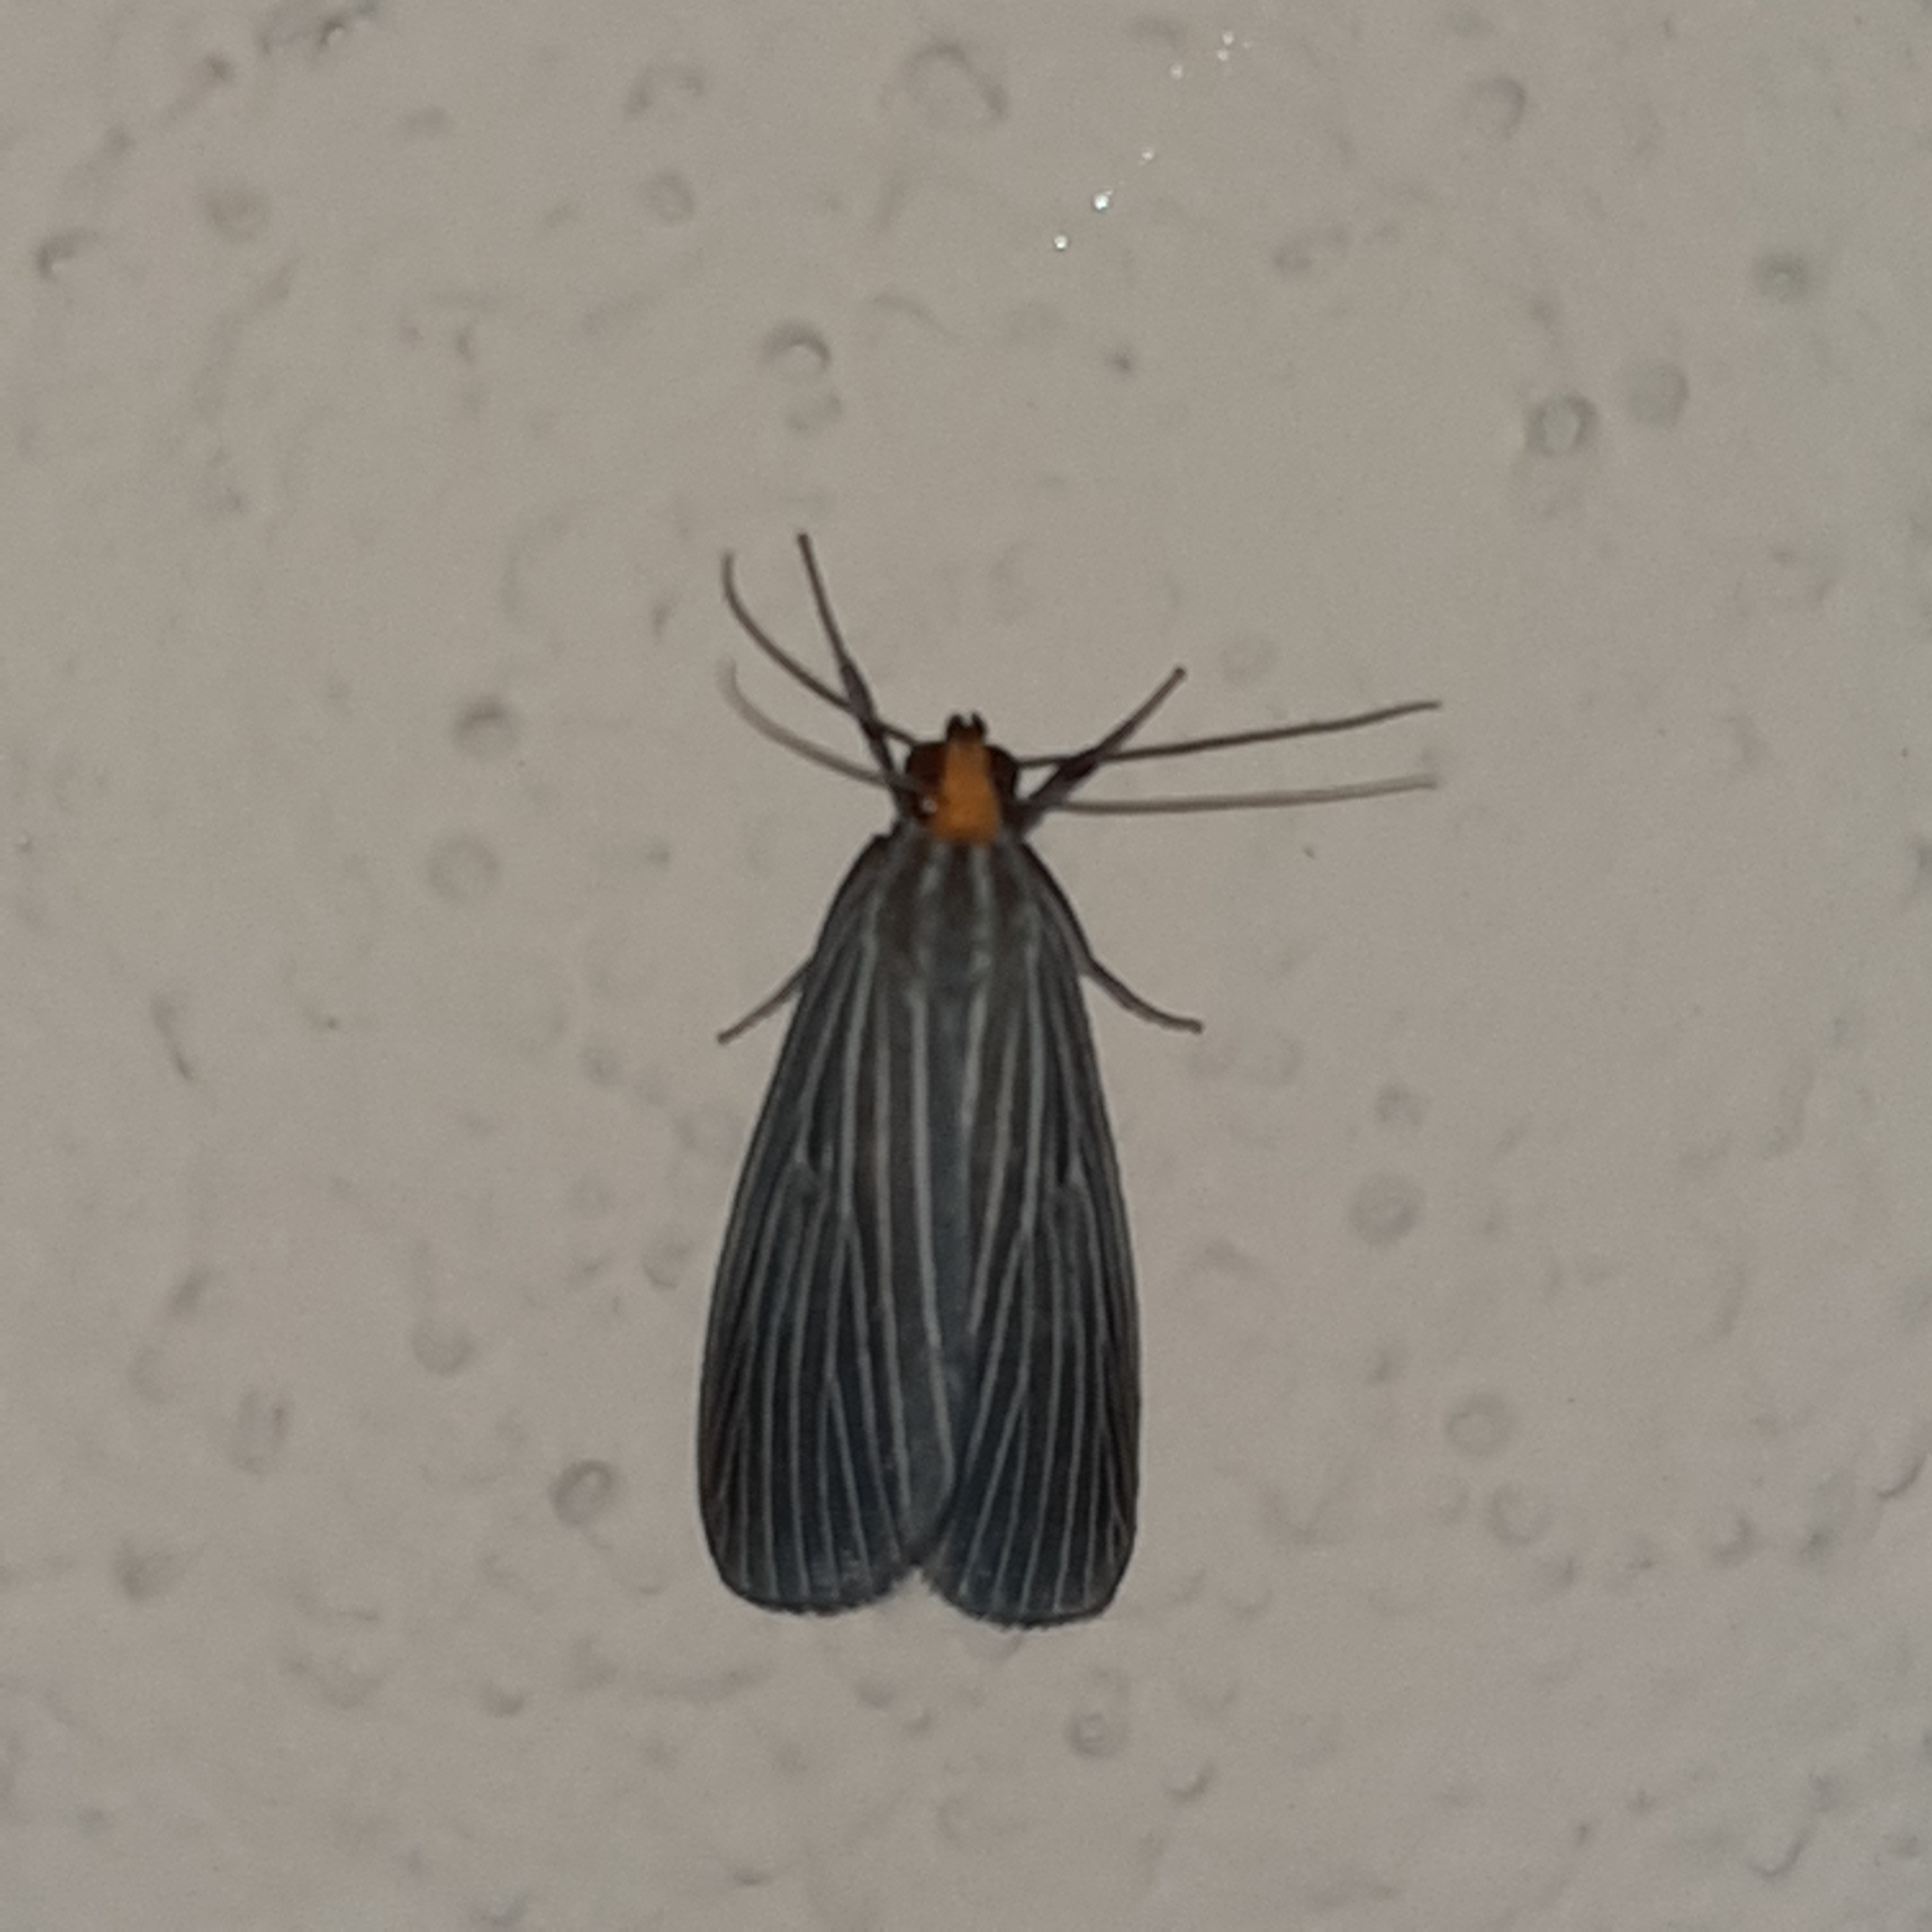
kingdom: Animalia
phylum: Arthropoda
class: Insecta
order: Lepidoptera
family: Notodontidae
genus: Scotura
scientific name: Scotura leucophleps
